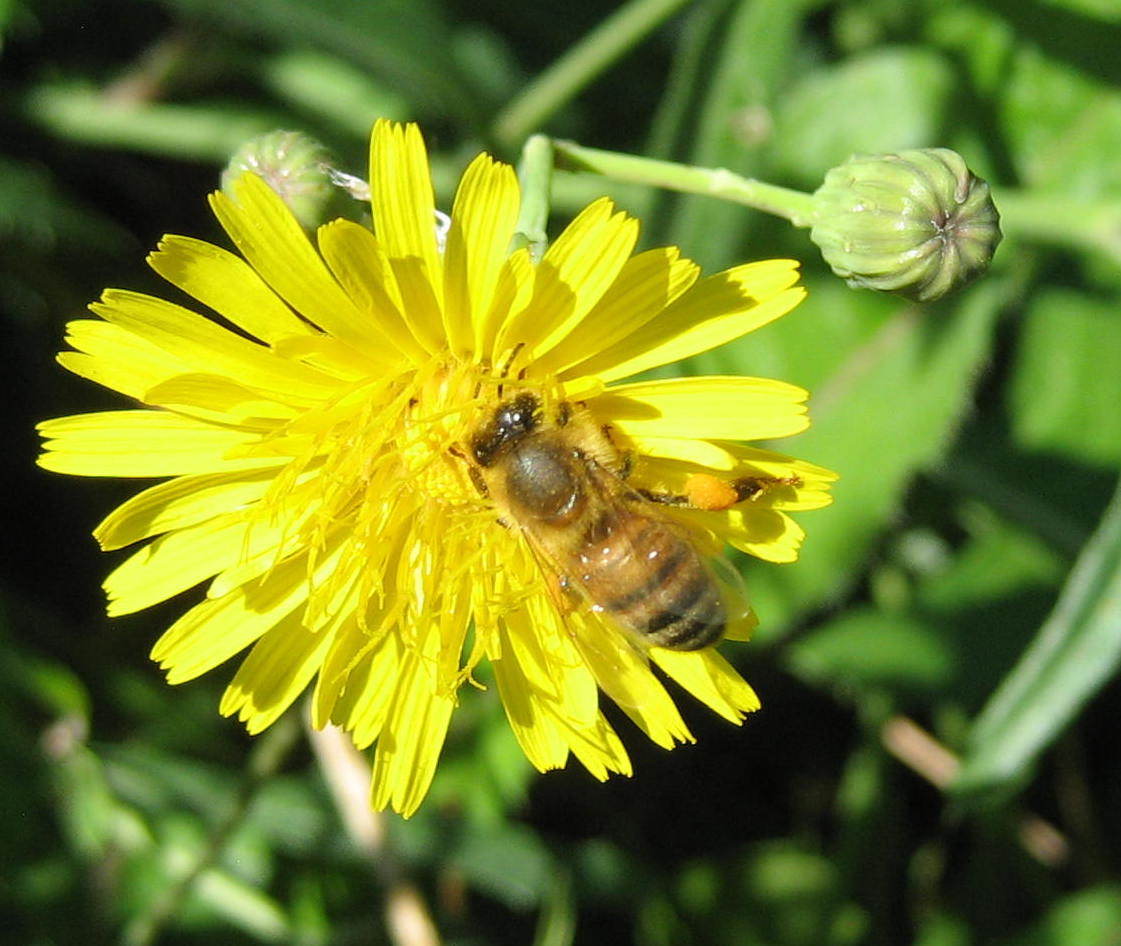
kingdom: Animalia
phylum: Arthropoda
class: Insecta
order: Hymenoptera
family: Apidae
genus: Apis
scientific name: Apis mellifera
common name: Honey bee
